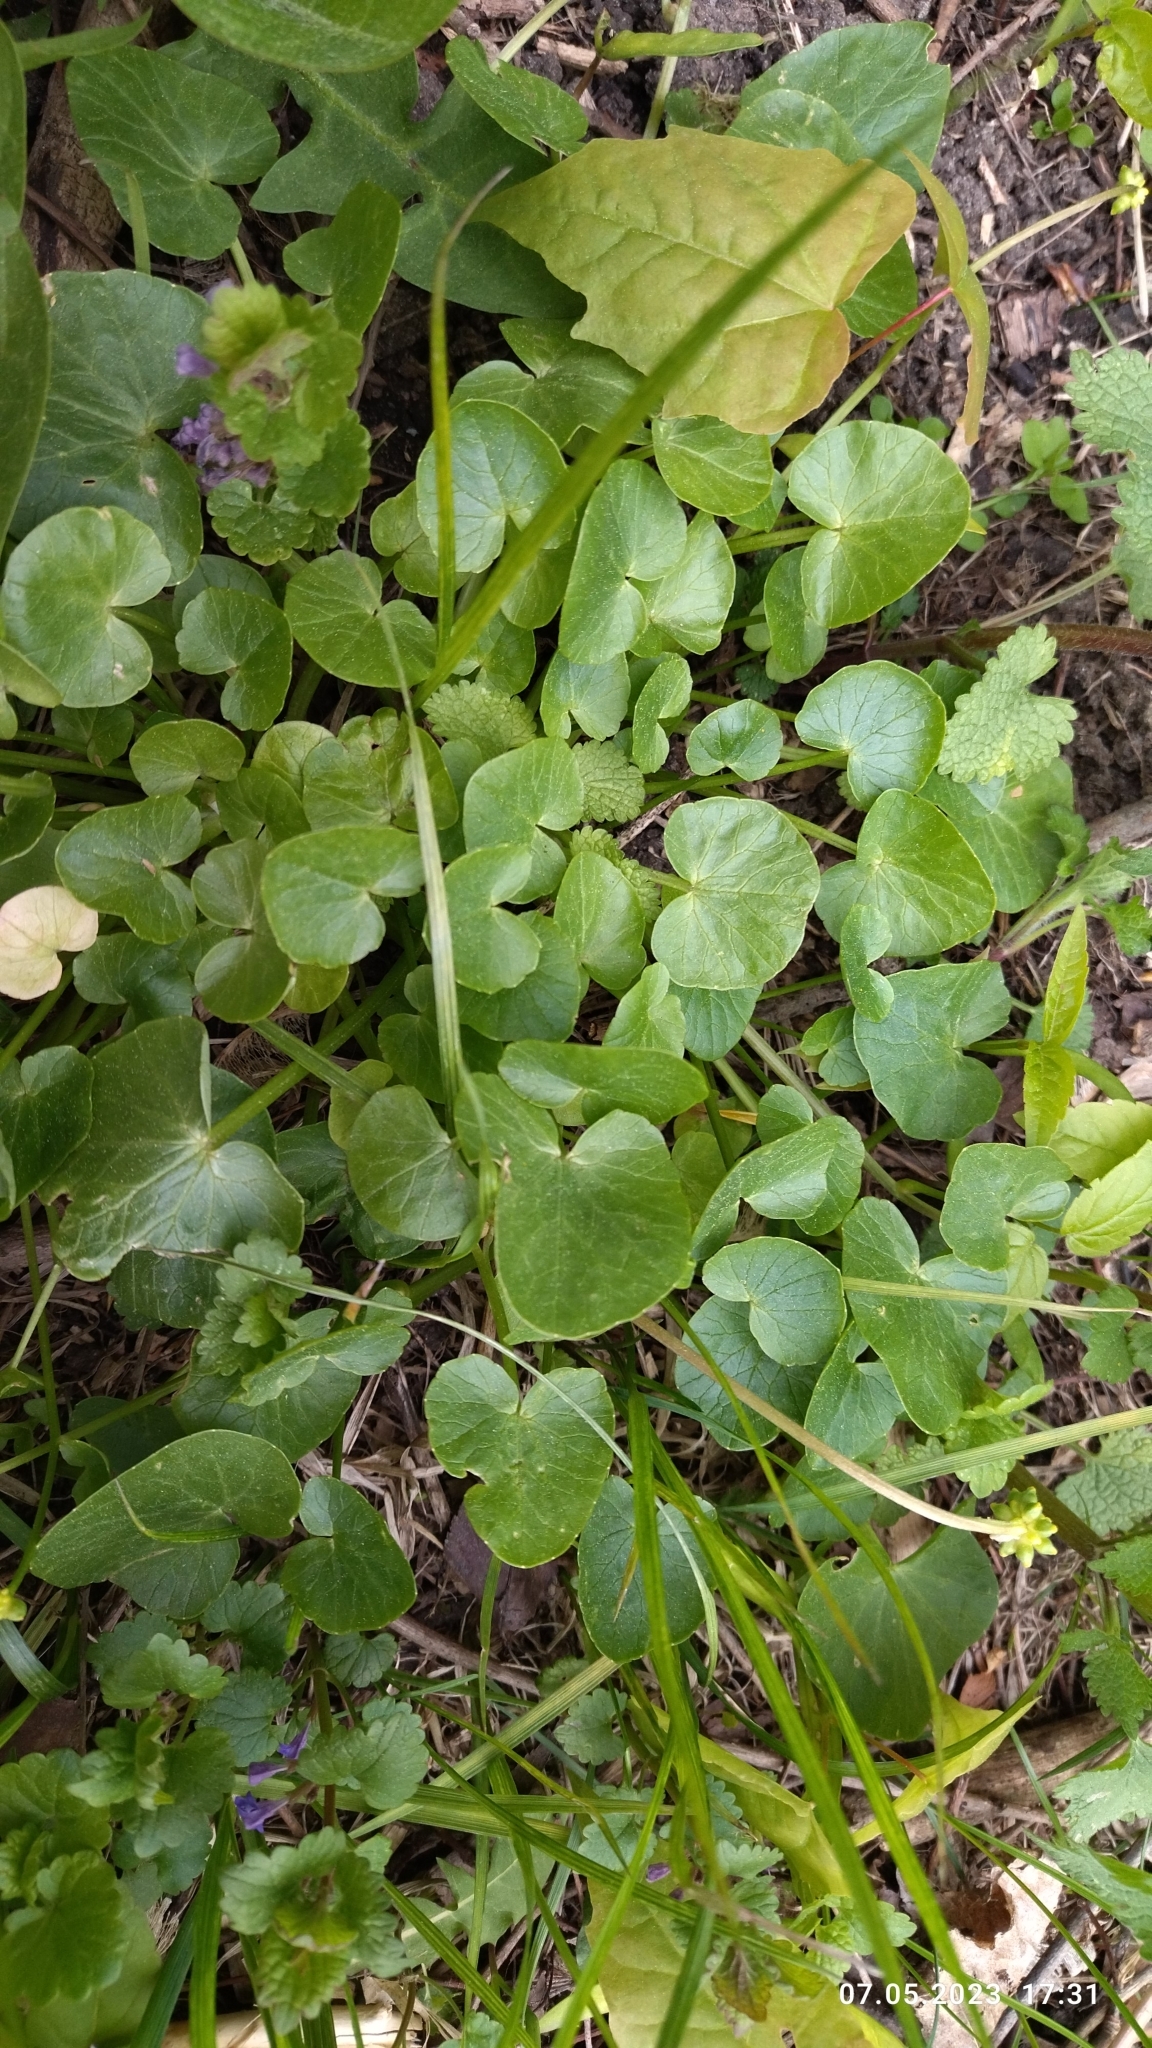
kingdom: Plantae
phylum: Tracheophyta
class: Magnoliopsida
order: Ranunculales
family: Ranunculaceae
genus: Ficaria
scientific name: Ficaria verna
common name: Lesser celandine
